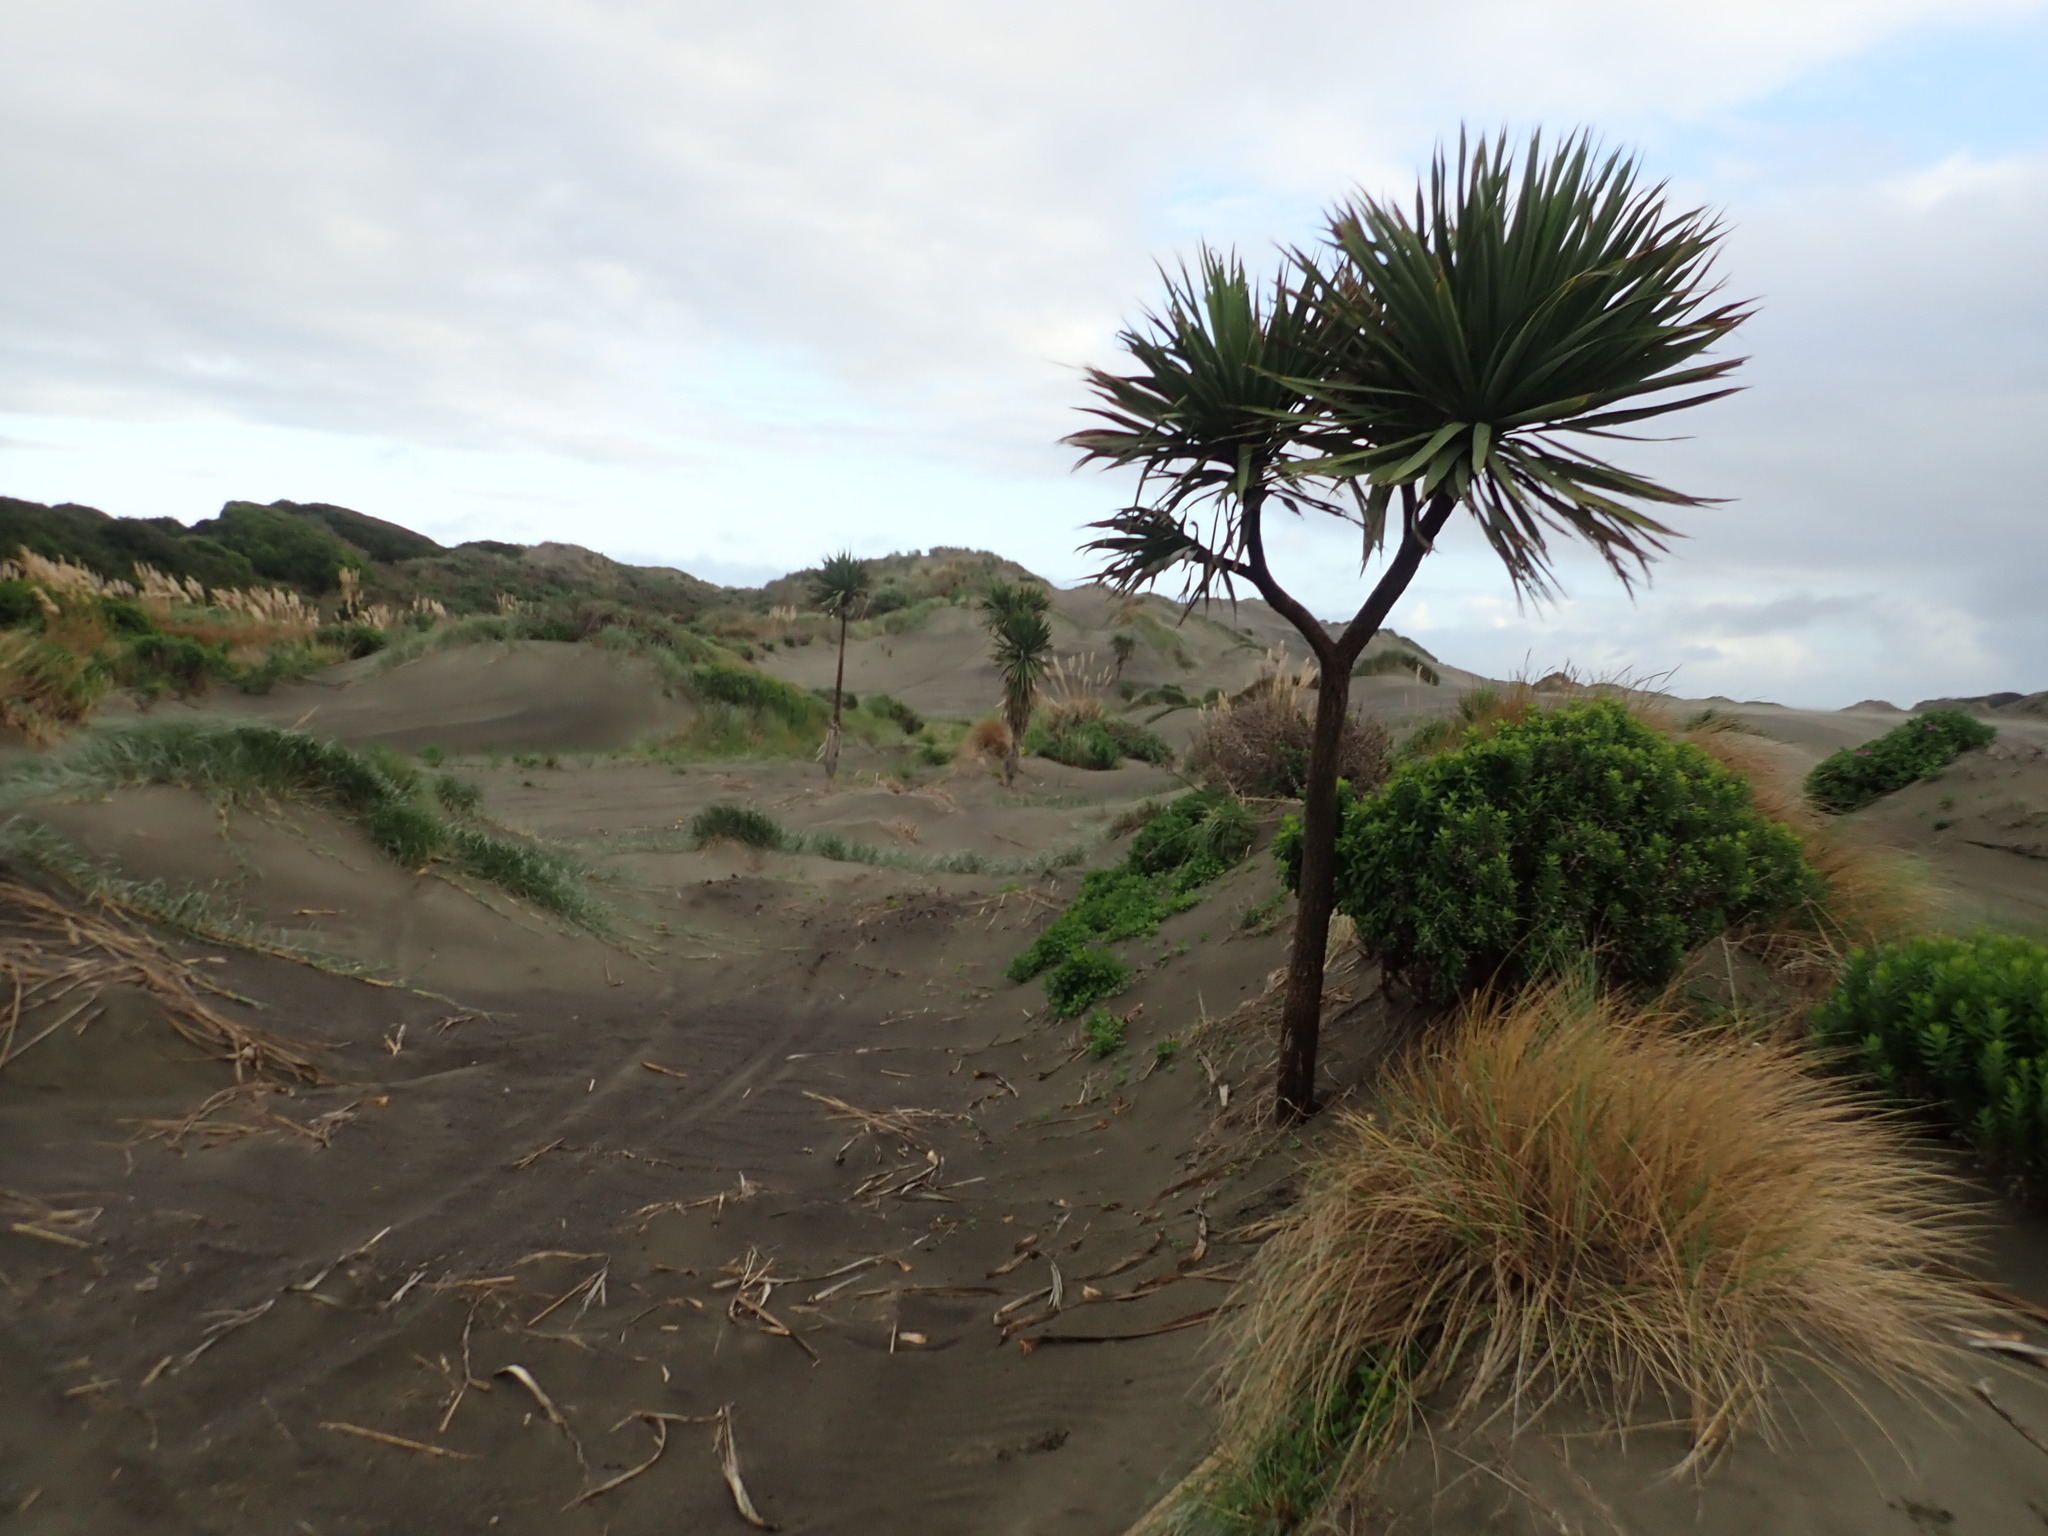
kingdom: Plantae
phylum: Tracheophyta
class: Liliopsida
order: Asparagales
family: Asparagaceae
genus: Cordyline
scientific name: Cordyline australis
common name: Cabbage-palm
